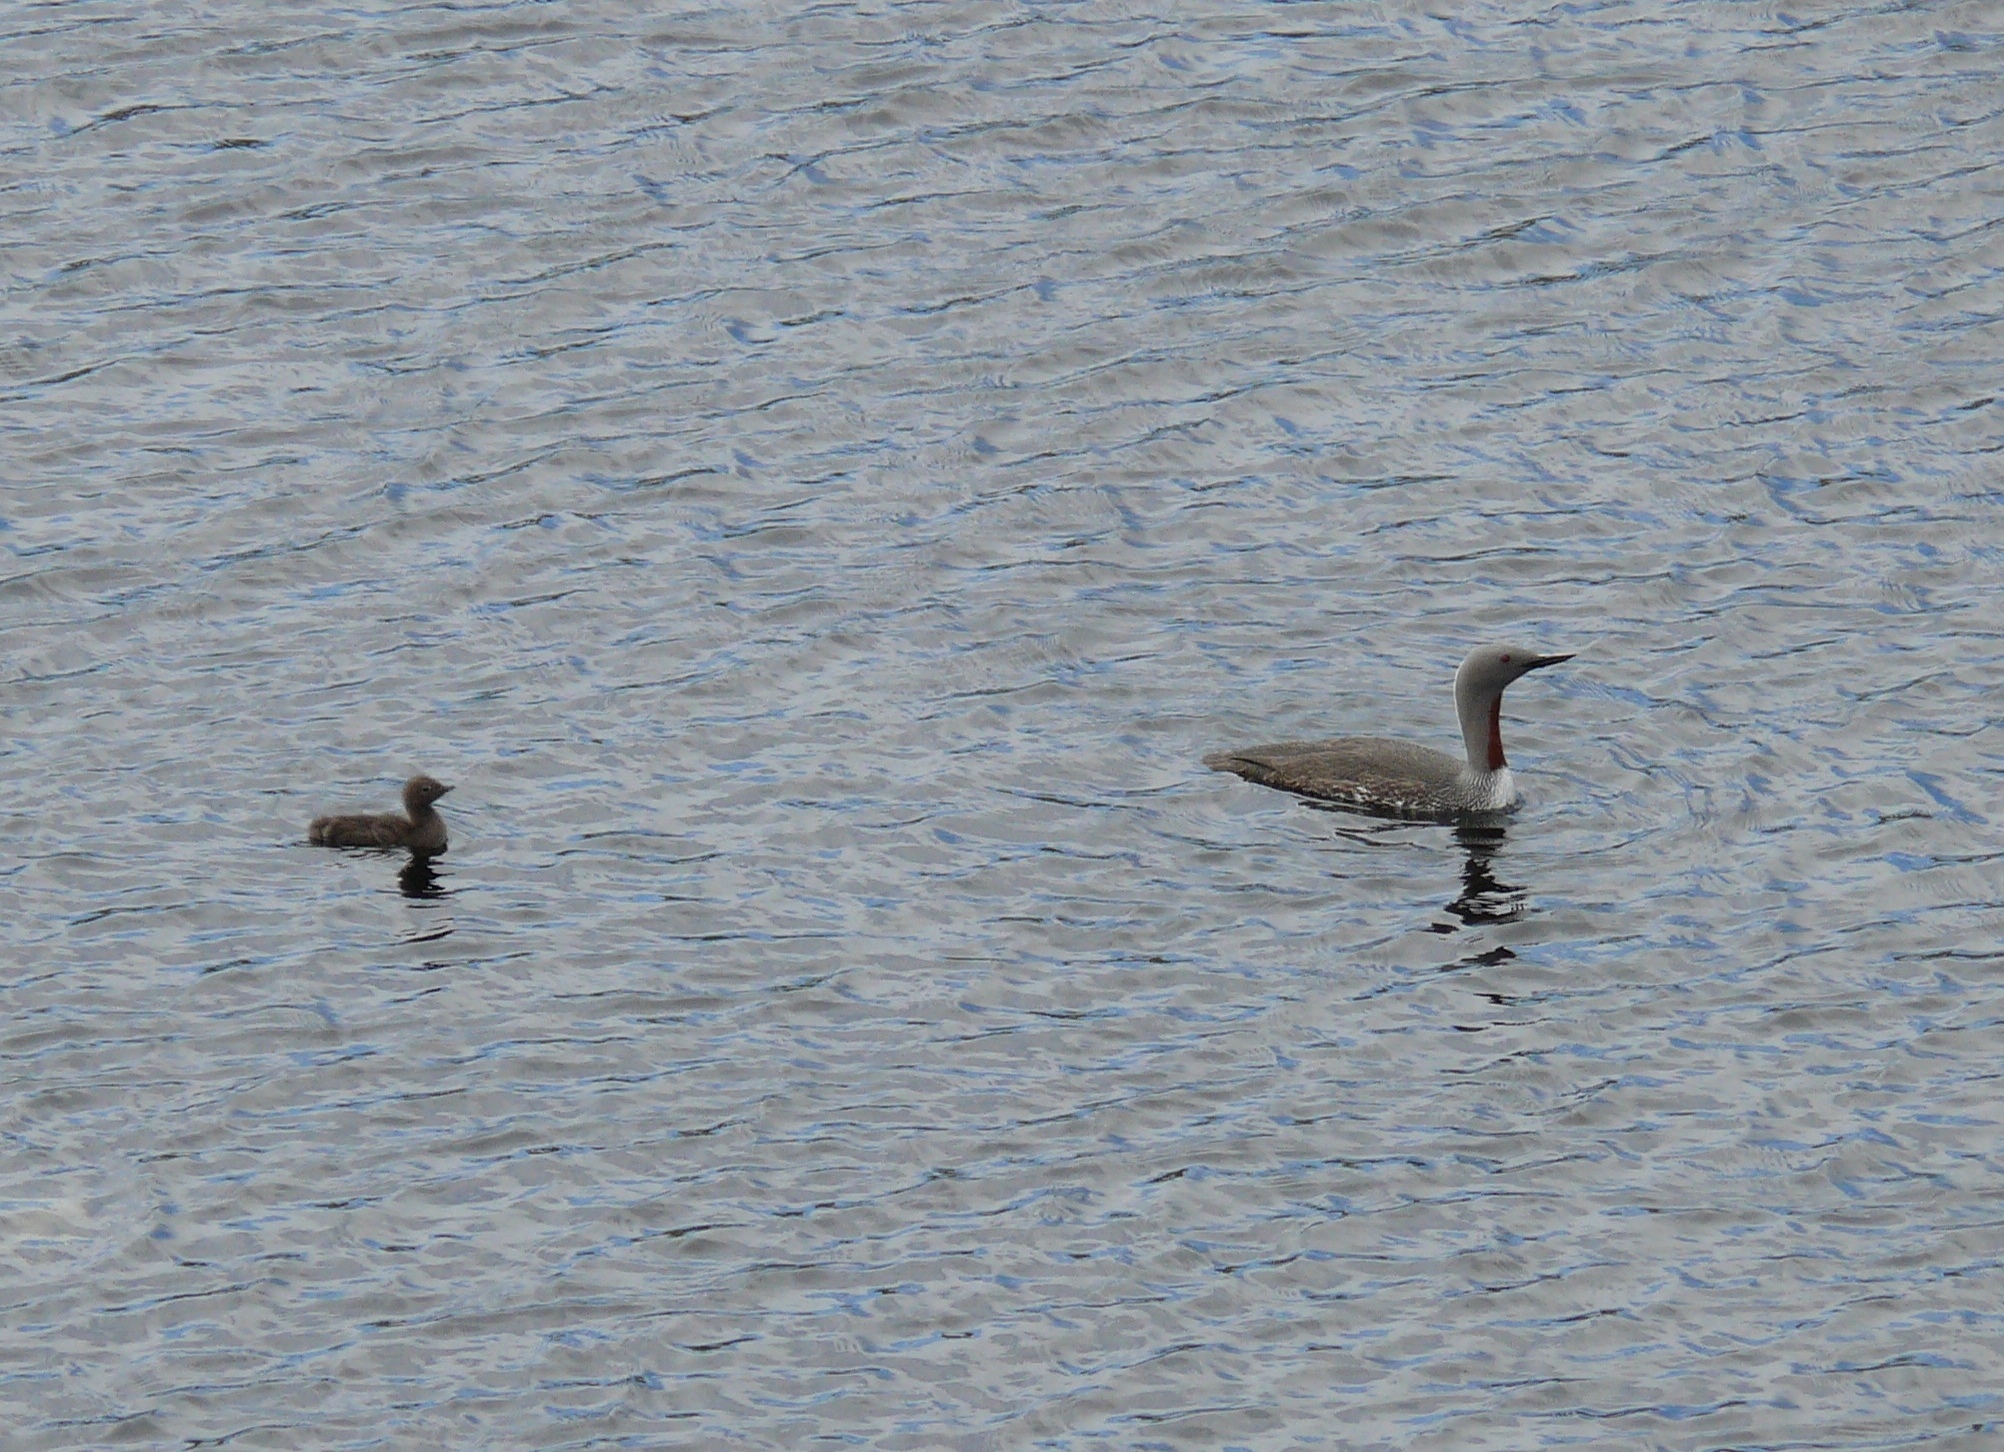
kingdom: Animalia
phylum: Chordata
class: Aves
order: Gaviiformes
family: Gaviidae
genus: Gavia
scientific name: Gavia stellata
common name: Red-throated loon
